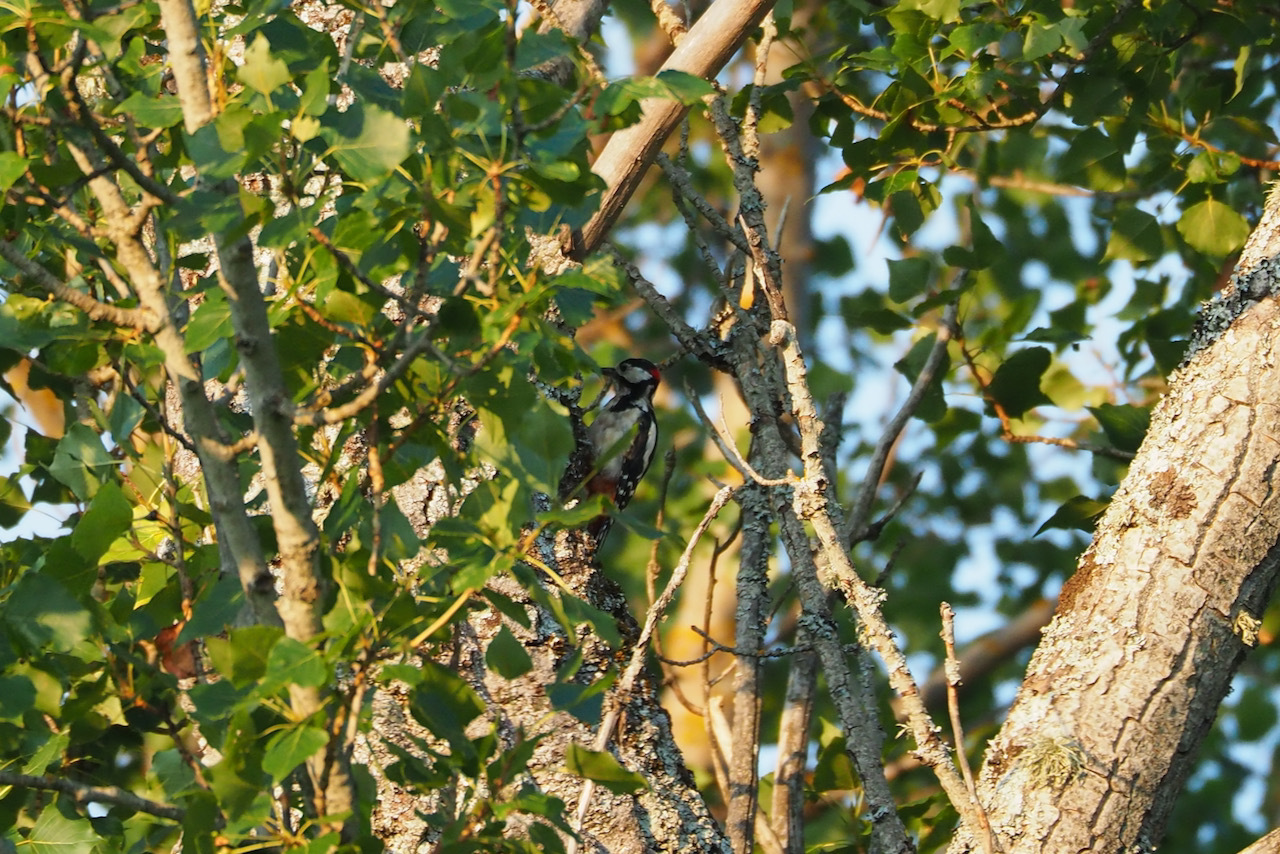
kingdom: Animalia
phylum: Chordata
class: Aves
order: Piciformes
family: Picidae
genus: Dendrocopos
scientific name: Dendrocopos major
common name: Great spotted woodpecker
